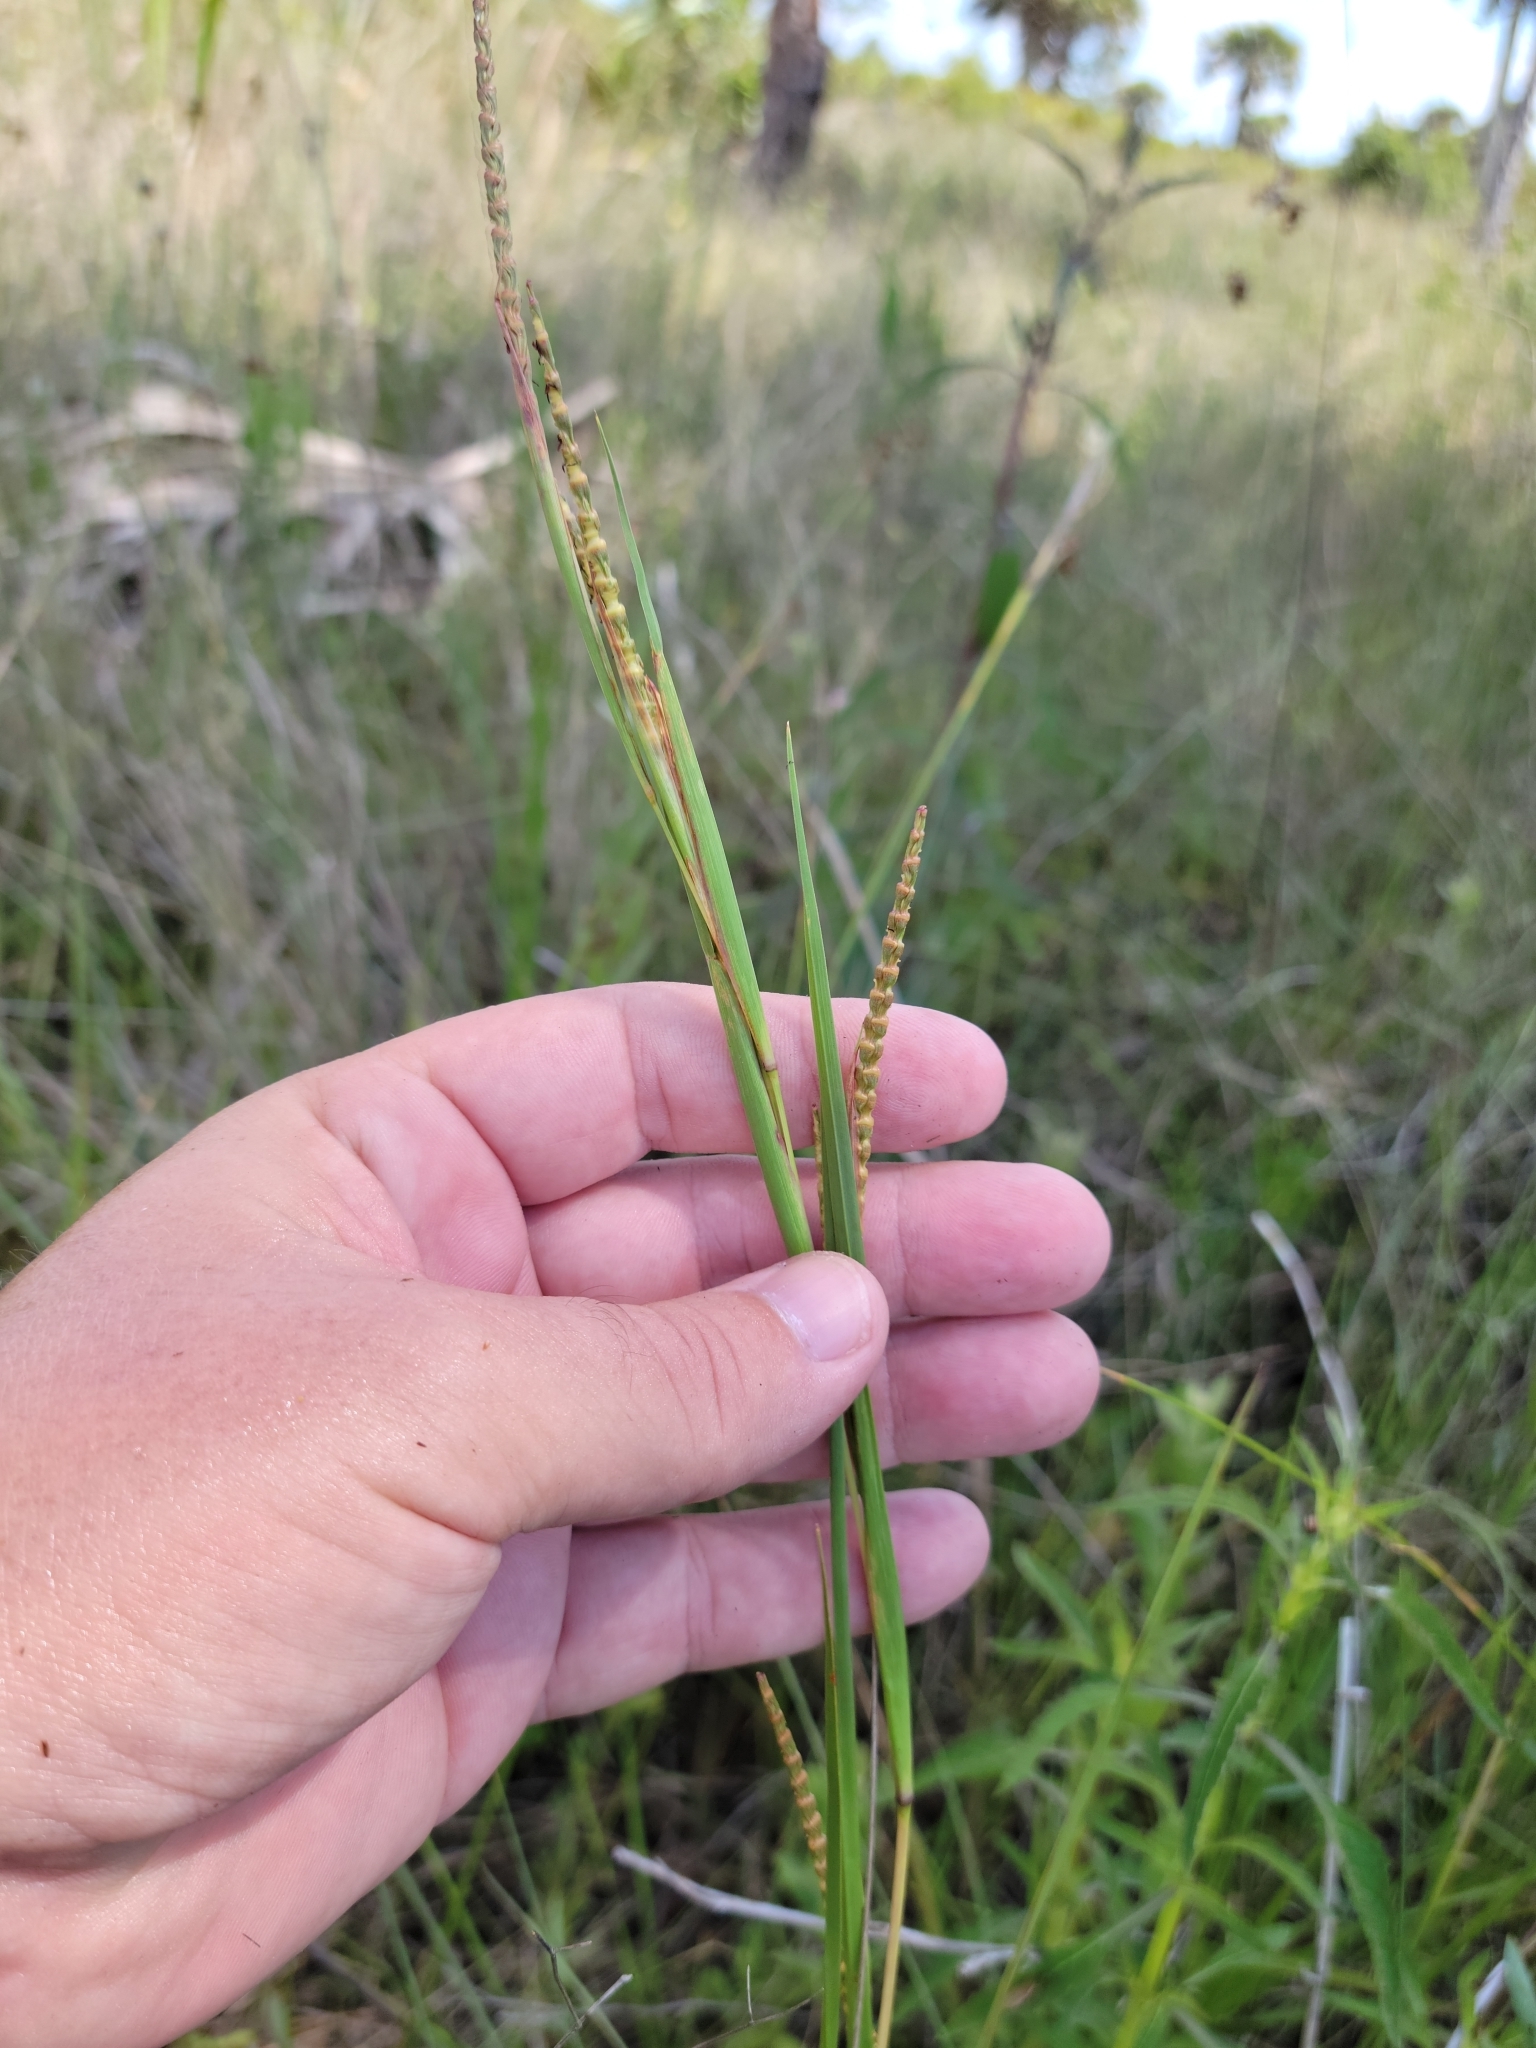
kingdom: Plantae
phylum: Tracheophyta
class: Liliopsida
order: Poales
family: Poaceae
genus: Rottboellia
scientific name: Rottboellia rugosa
